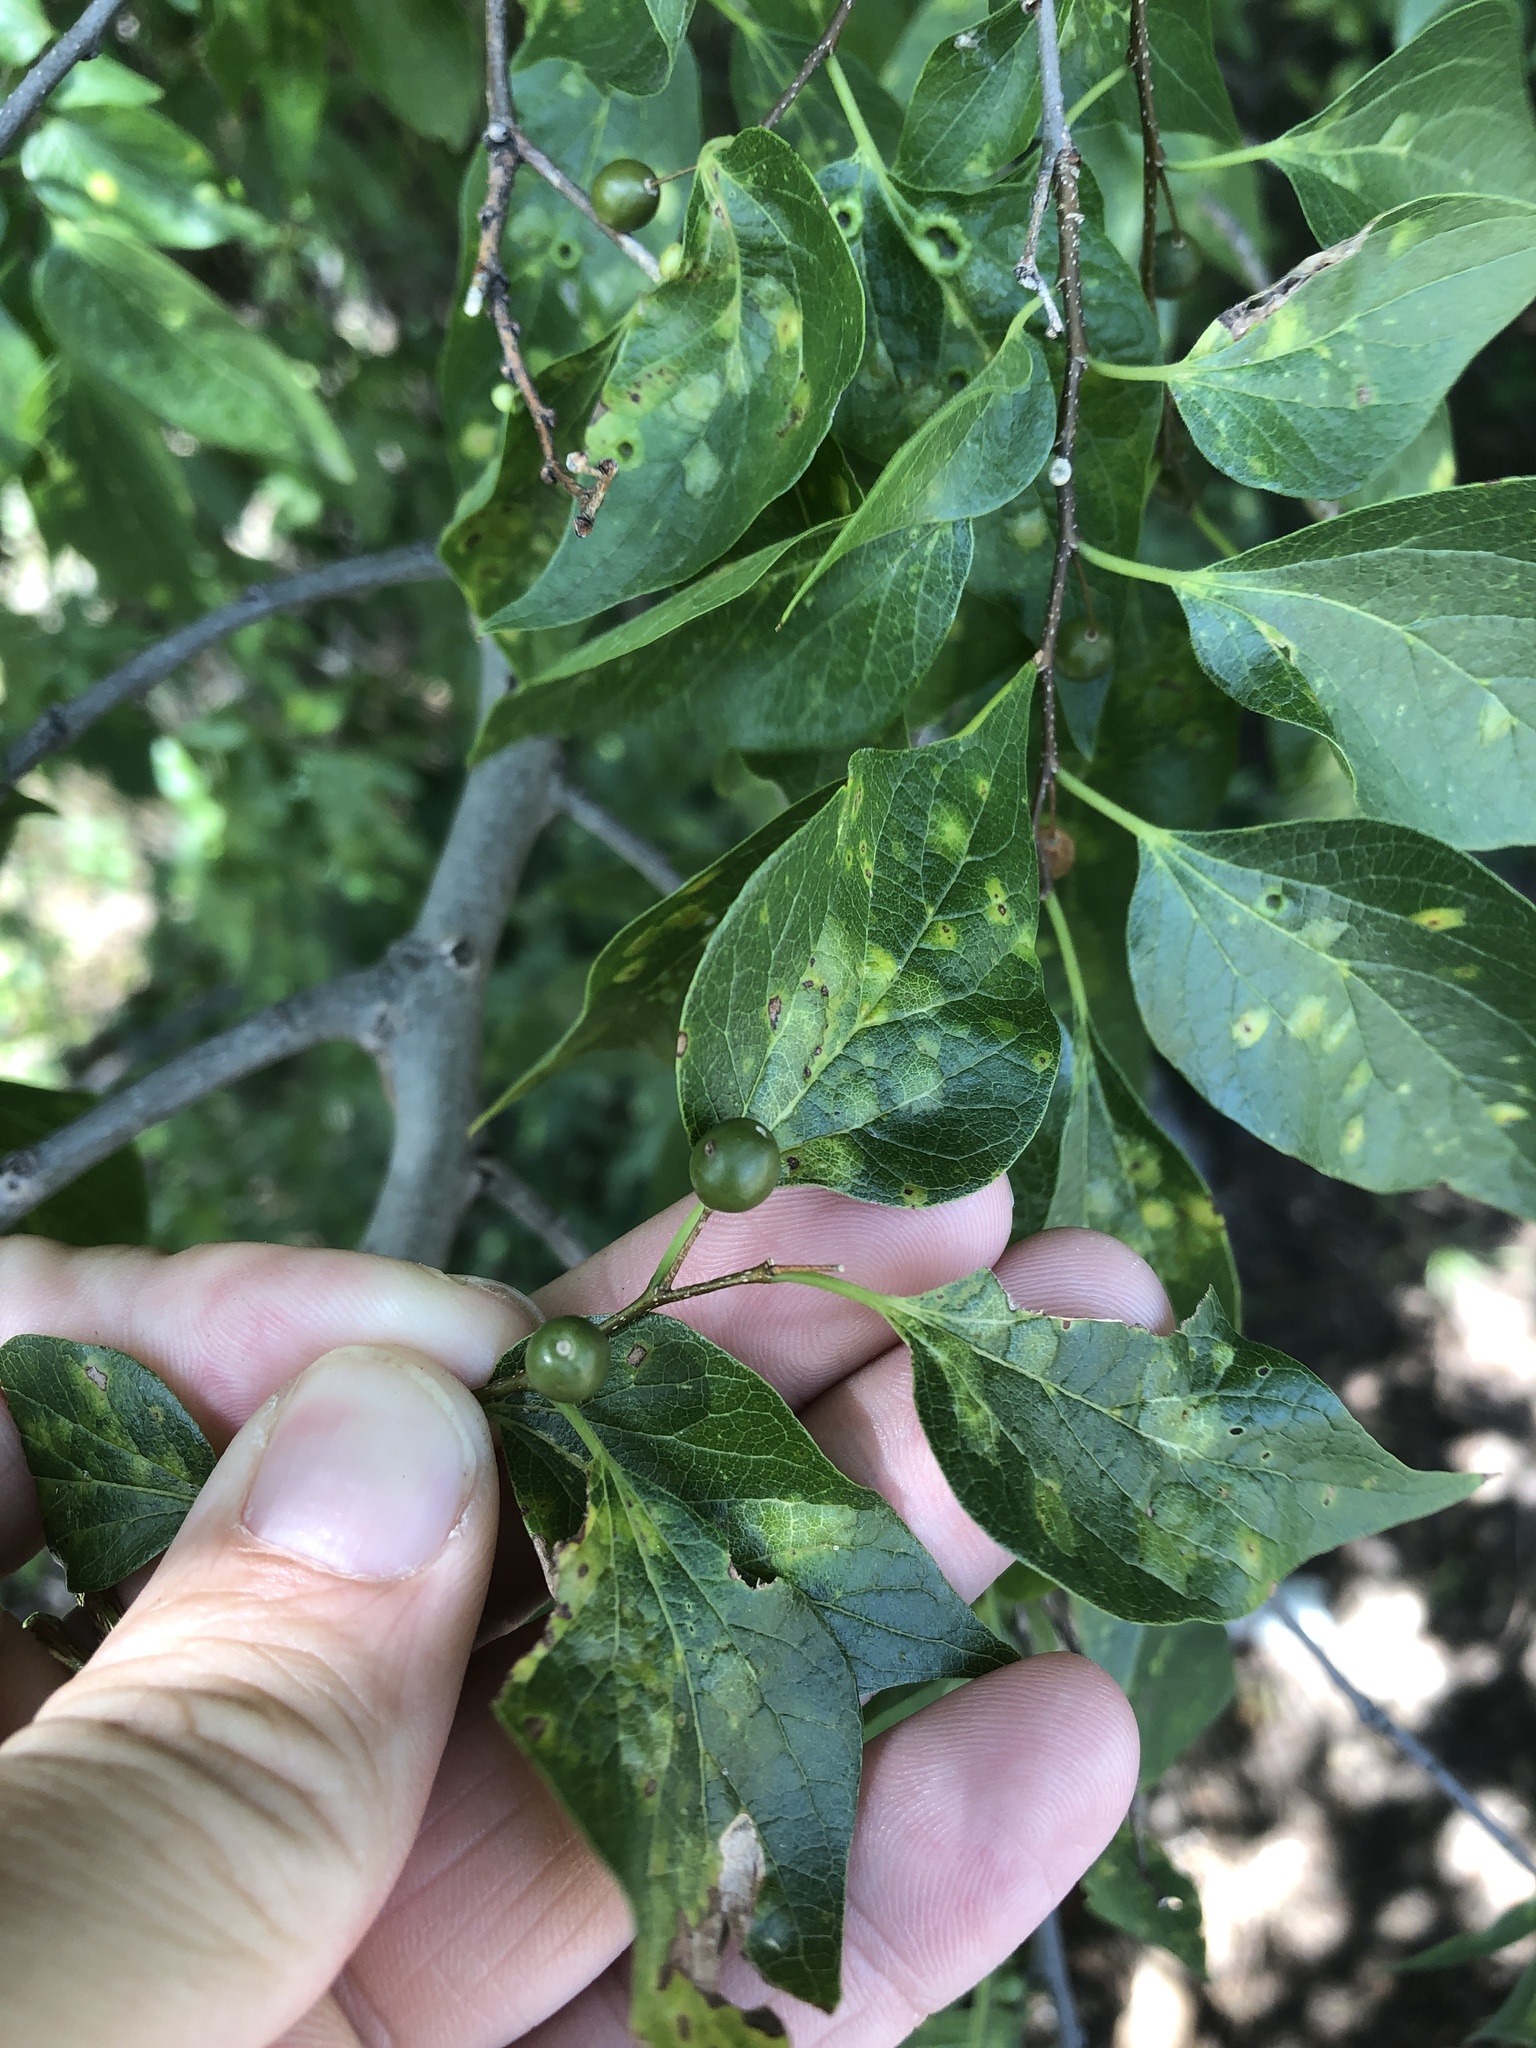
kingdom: Plantae
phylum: Tracheophyta
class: Magnoliopsida
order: Rosales
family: Cannabaceae
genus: Celtis
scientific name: Celtis laevigata
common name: Sugarberry
